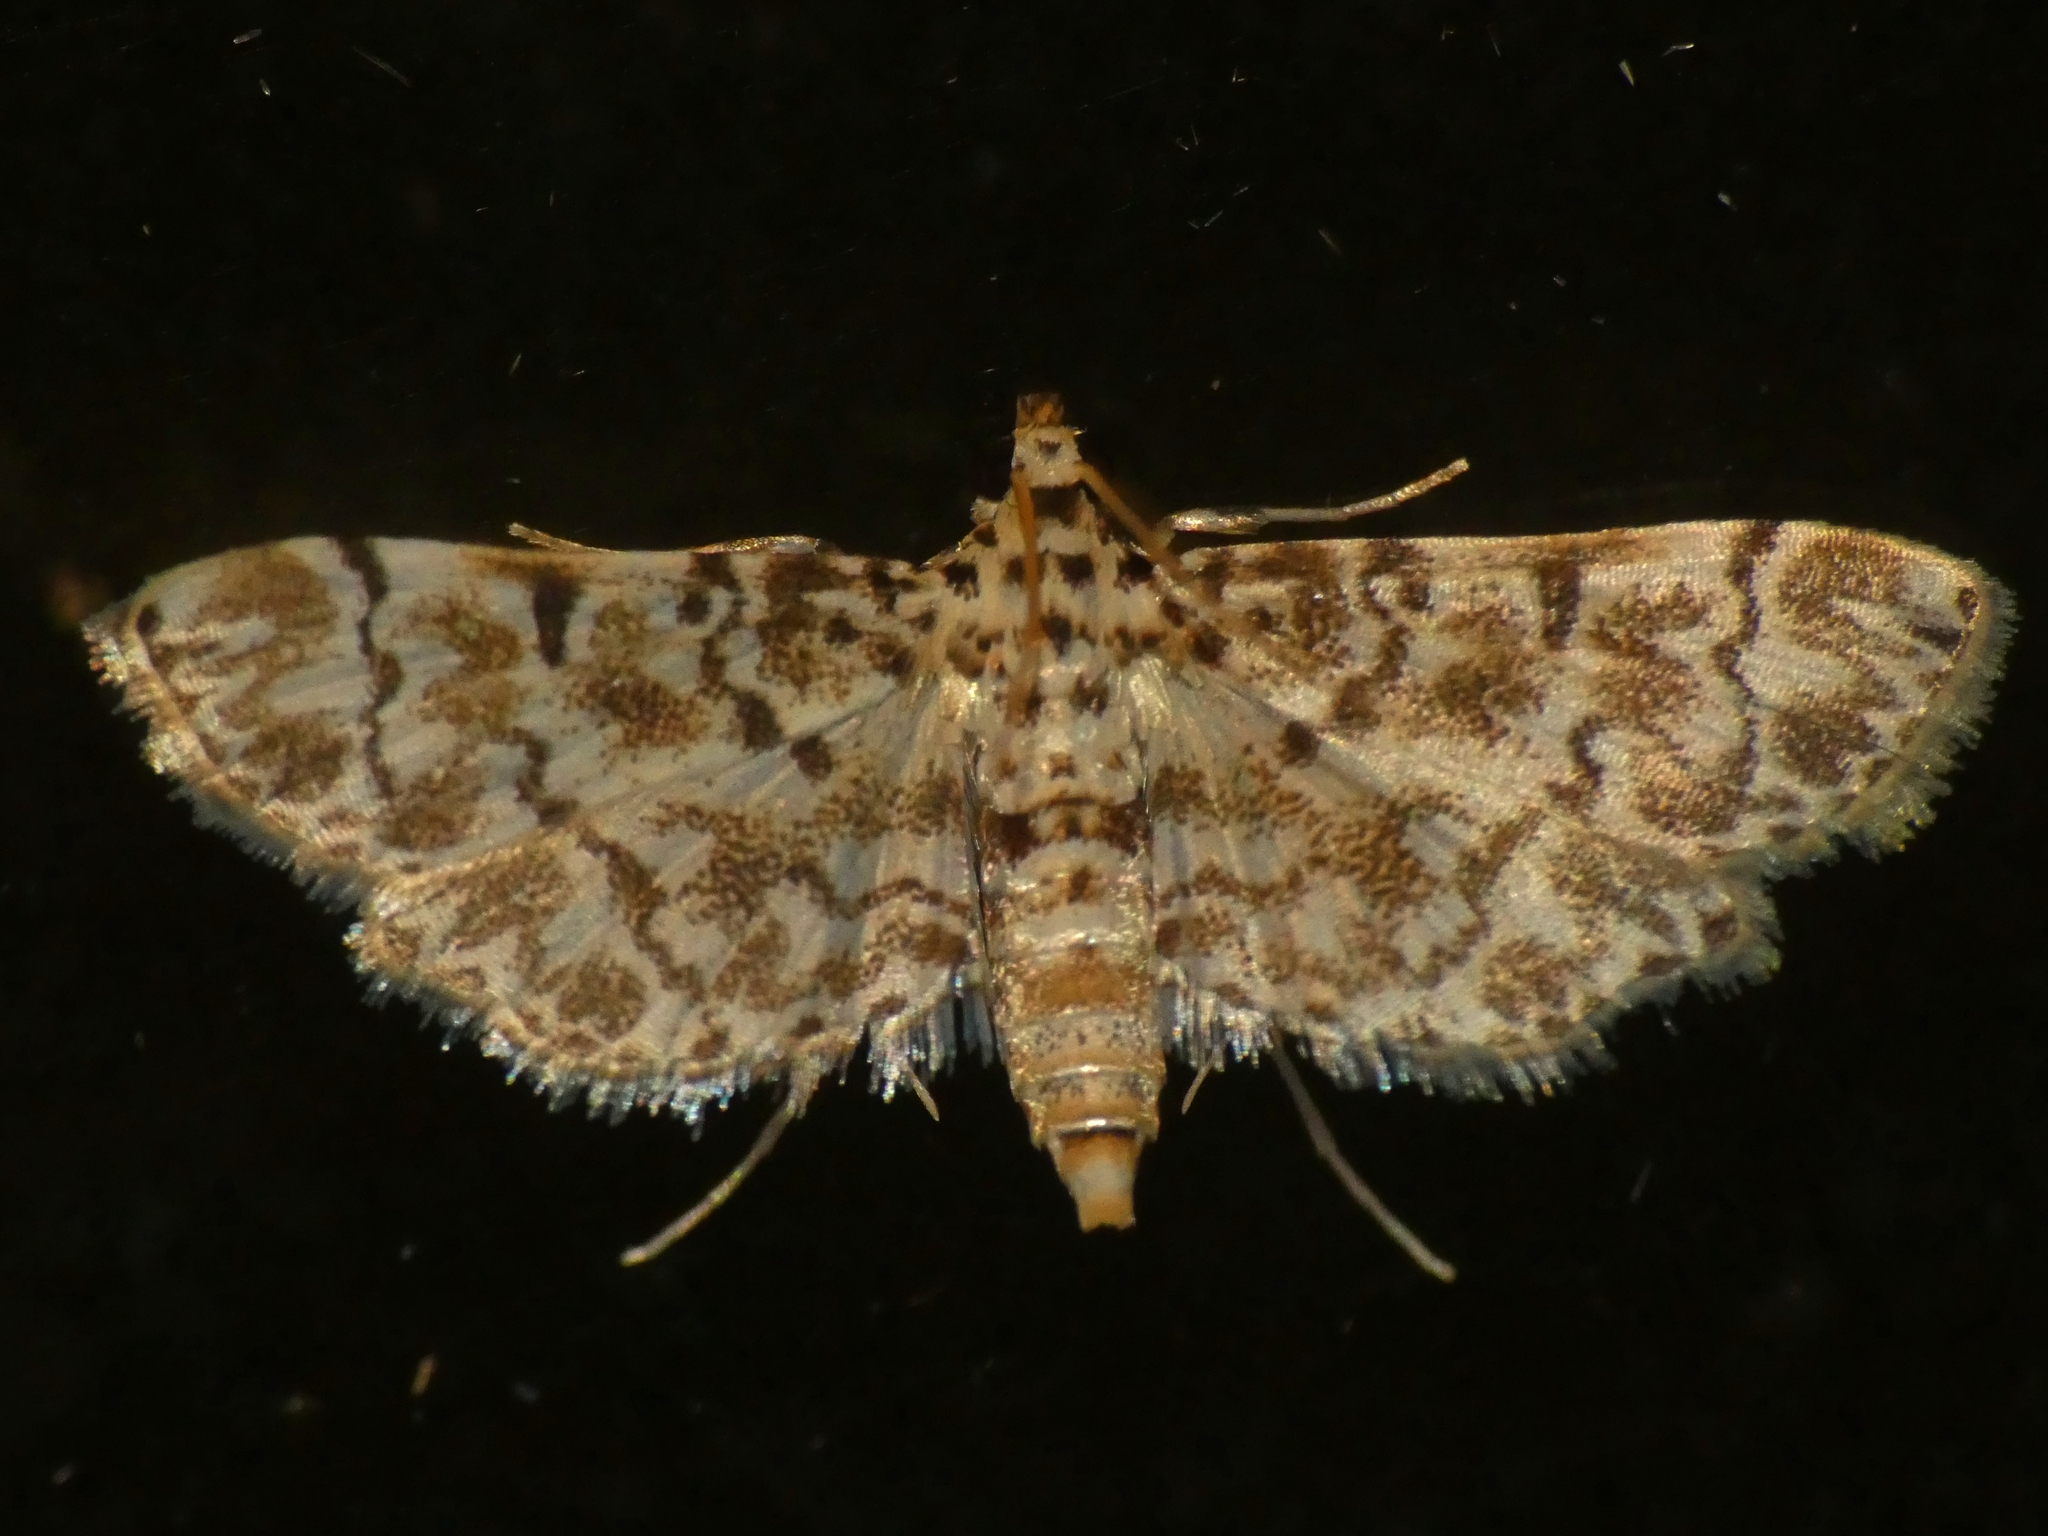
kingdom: Animalia
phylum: Arthropoda
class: Insecta
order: Lepidoptera
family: Crambidae
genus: Metoeca
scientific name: Metoeca foedalis
